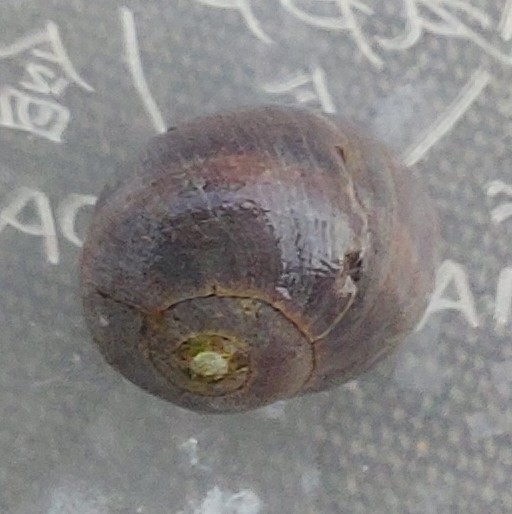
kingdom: Animalia
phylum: Mollusca
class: Gastropoda
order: Littorinimorpha
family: Littorinidae
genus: Littorina
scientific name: Littorina
